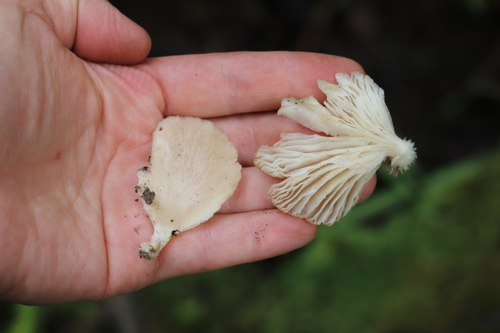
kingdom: Fungi
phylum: Basidiomycota
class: Agaricomycetes
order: Boletales
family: Paxillaceae
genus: Paxillus
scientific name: Paxillus involutus
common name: Brown roll rim
